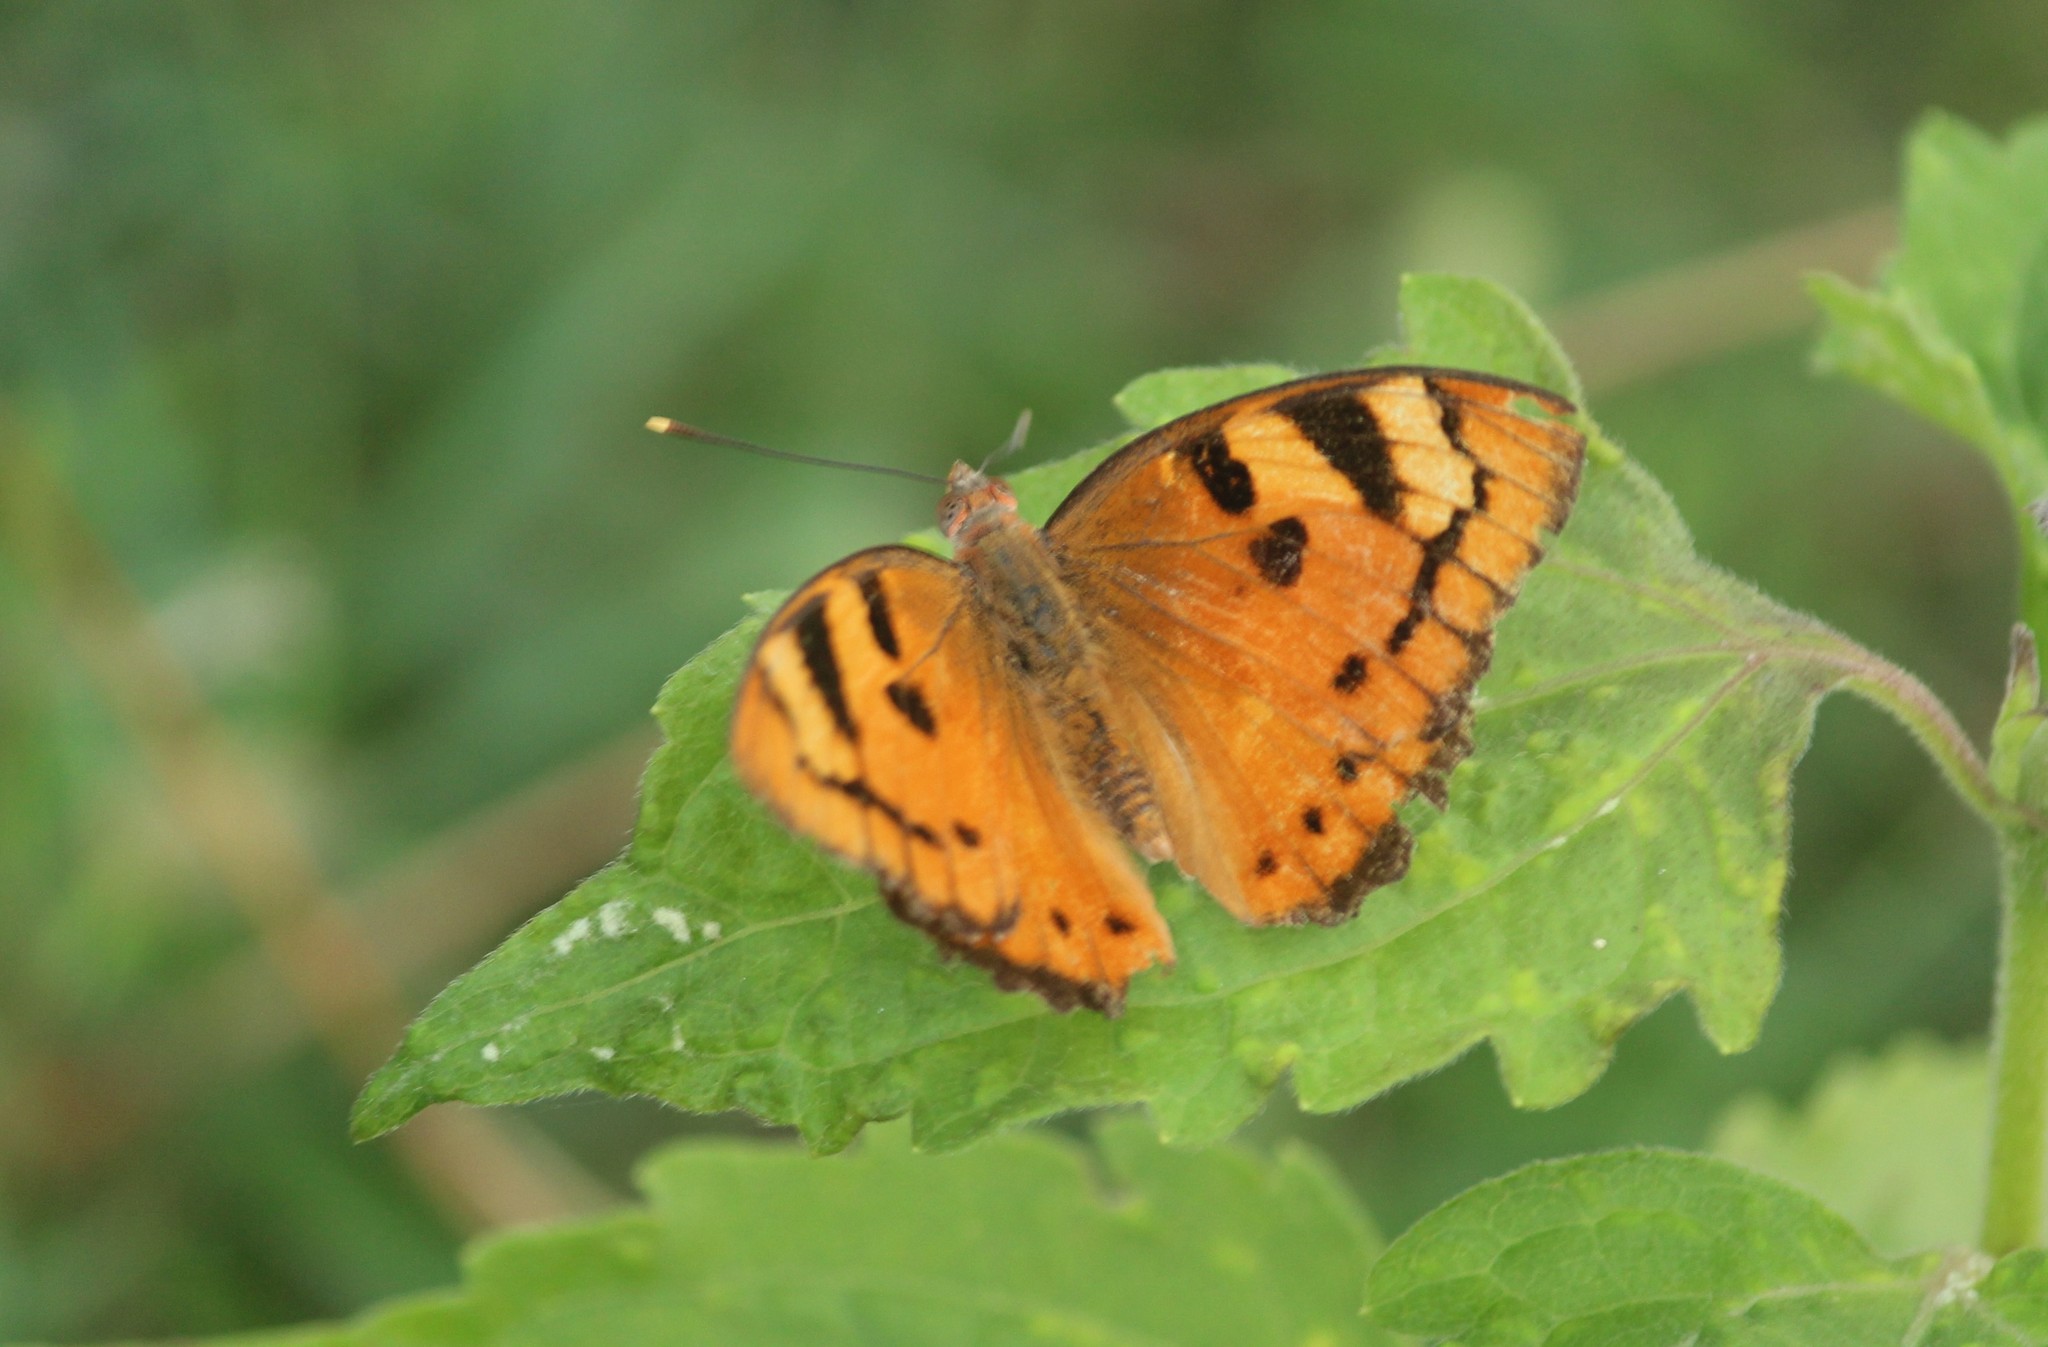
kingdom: Animalia
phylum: Arthropoda
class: Insecta
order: Lepidoptera
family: Nymphalidae
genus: Euthalia
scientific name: Euthalia nais
